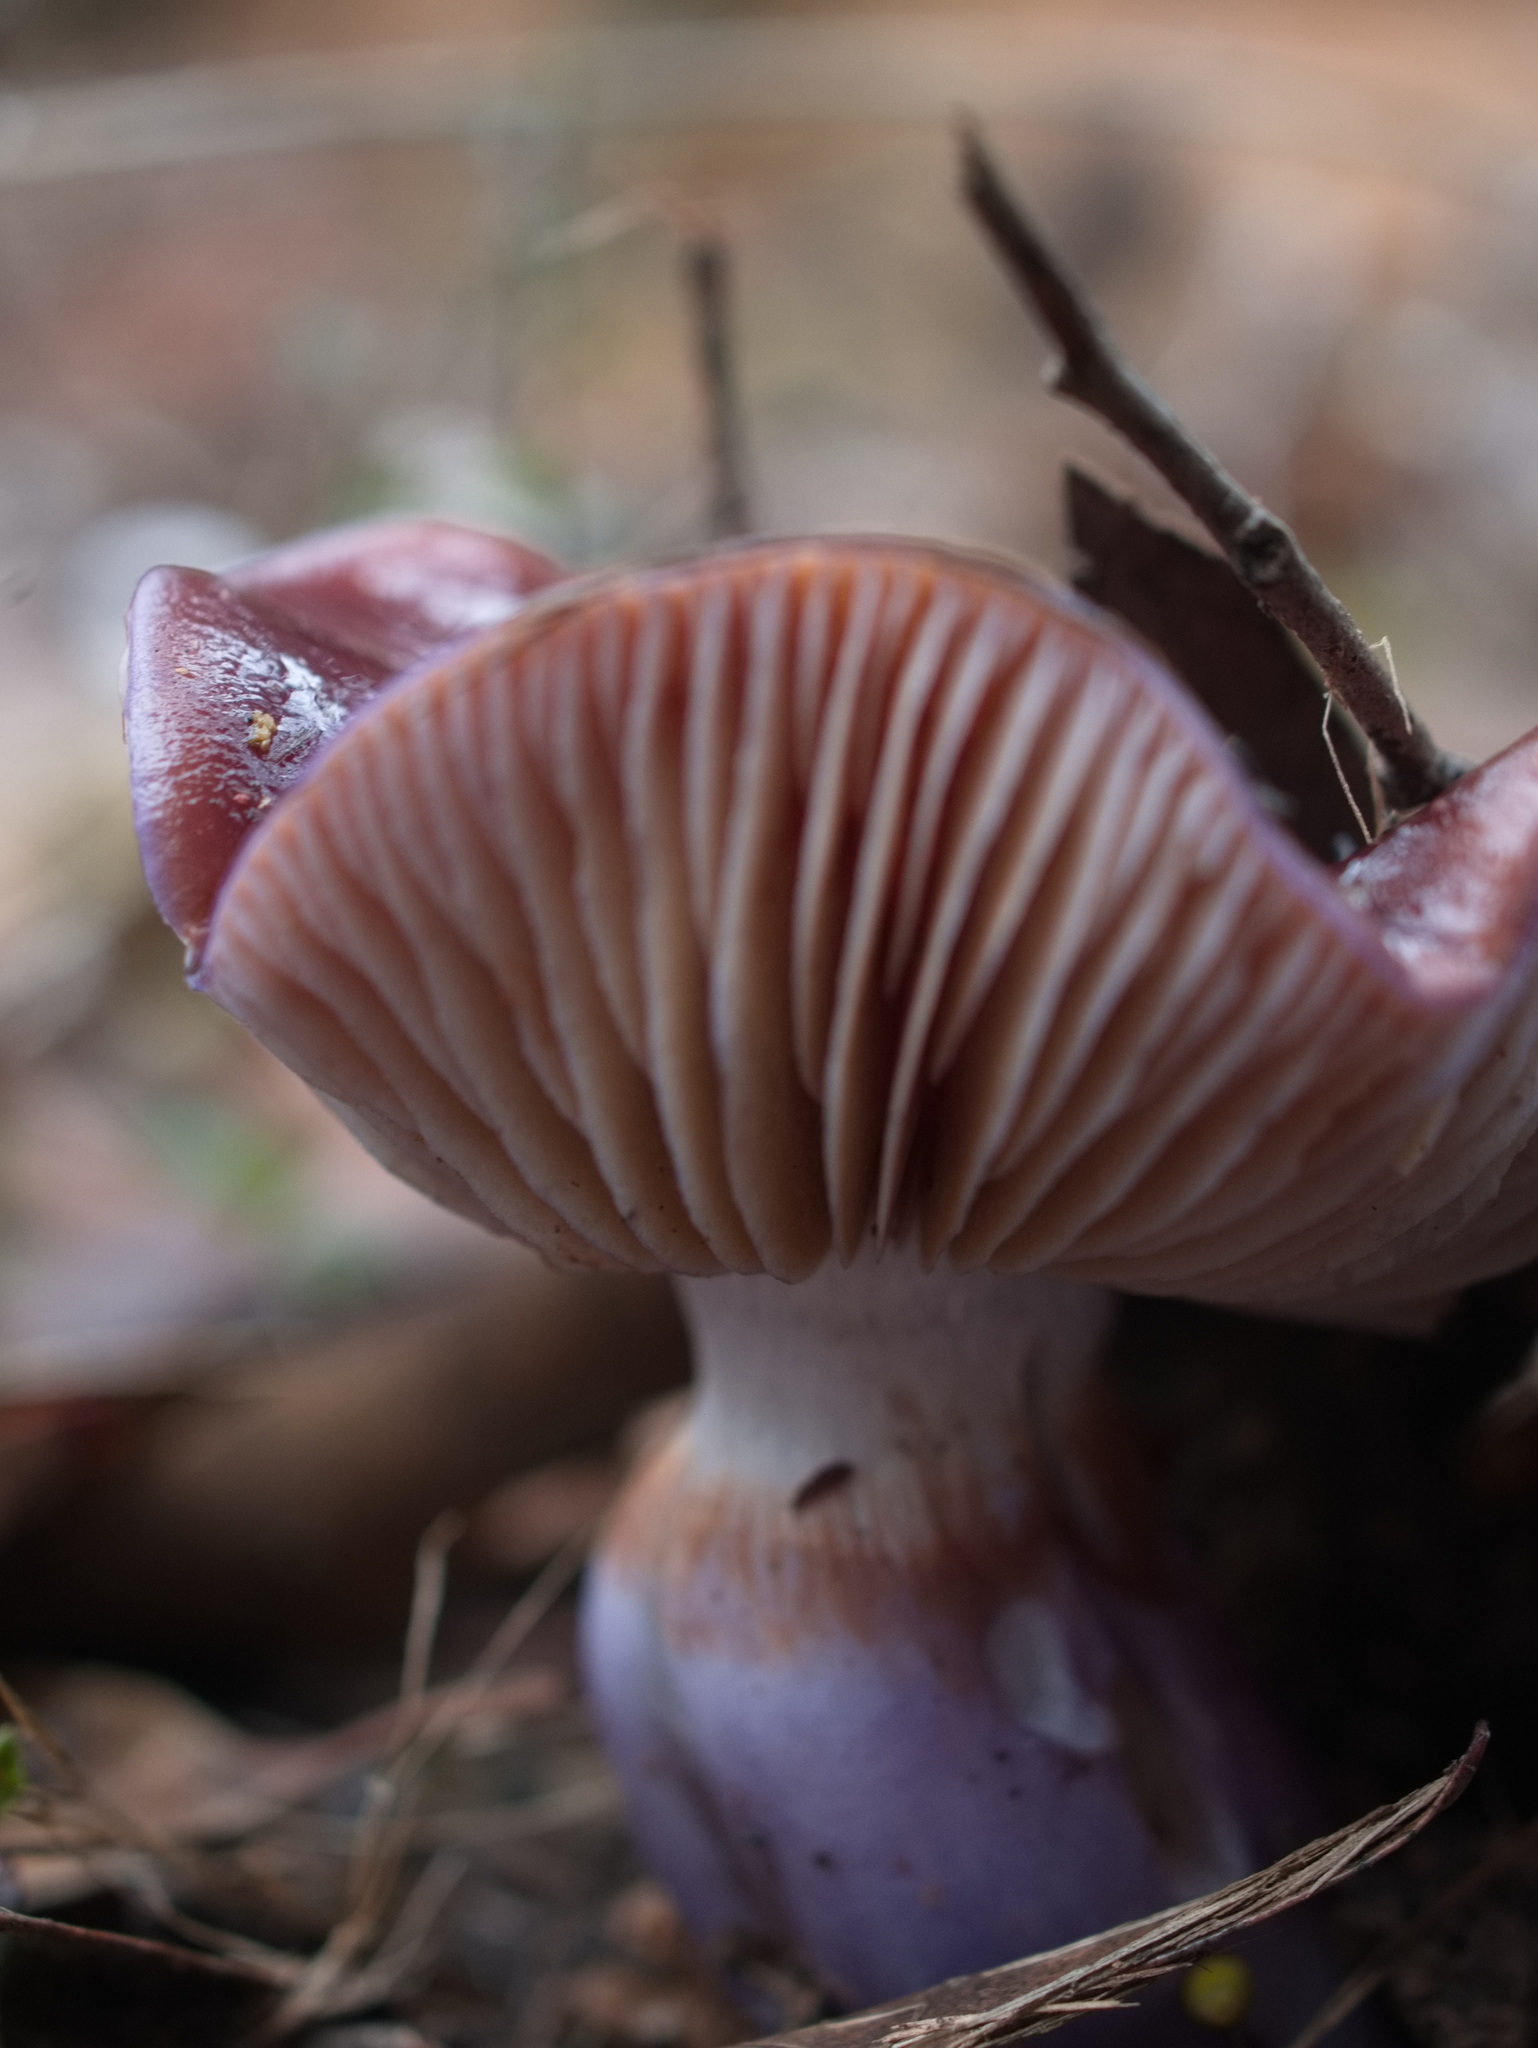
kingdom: Fungi
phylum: Basidiomycota
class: Agaricomycetes
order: Agaricales
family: Cortinariaceae
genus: Cortinarius
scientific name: Cortinarius archeri
